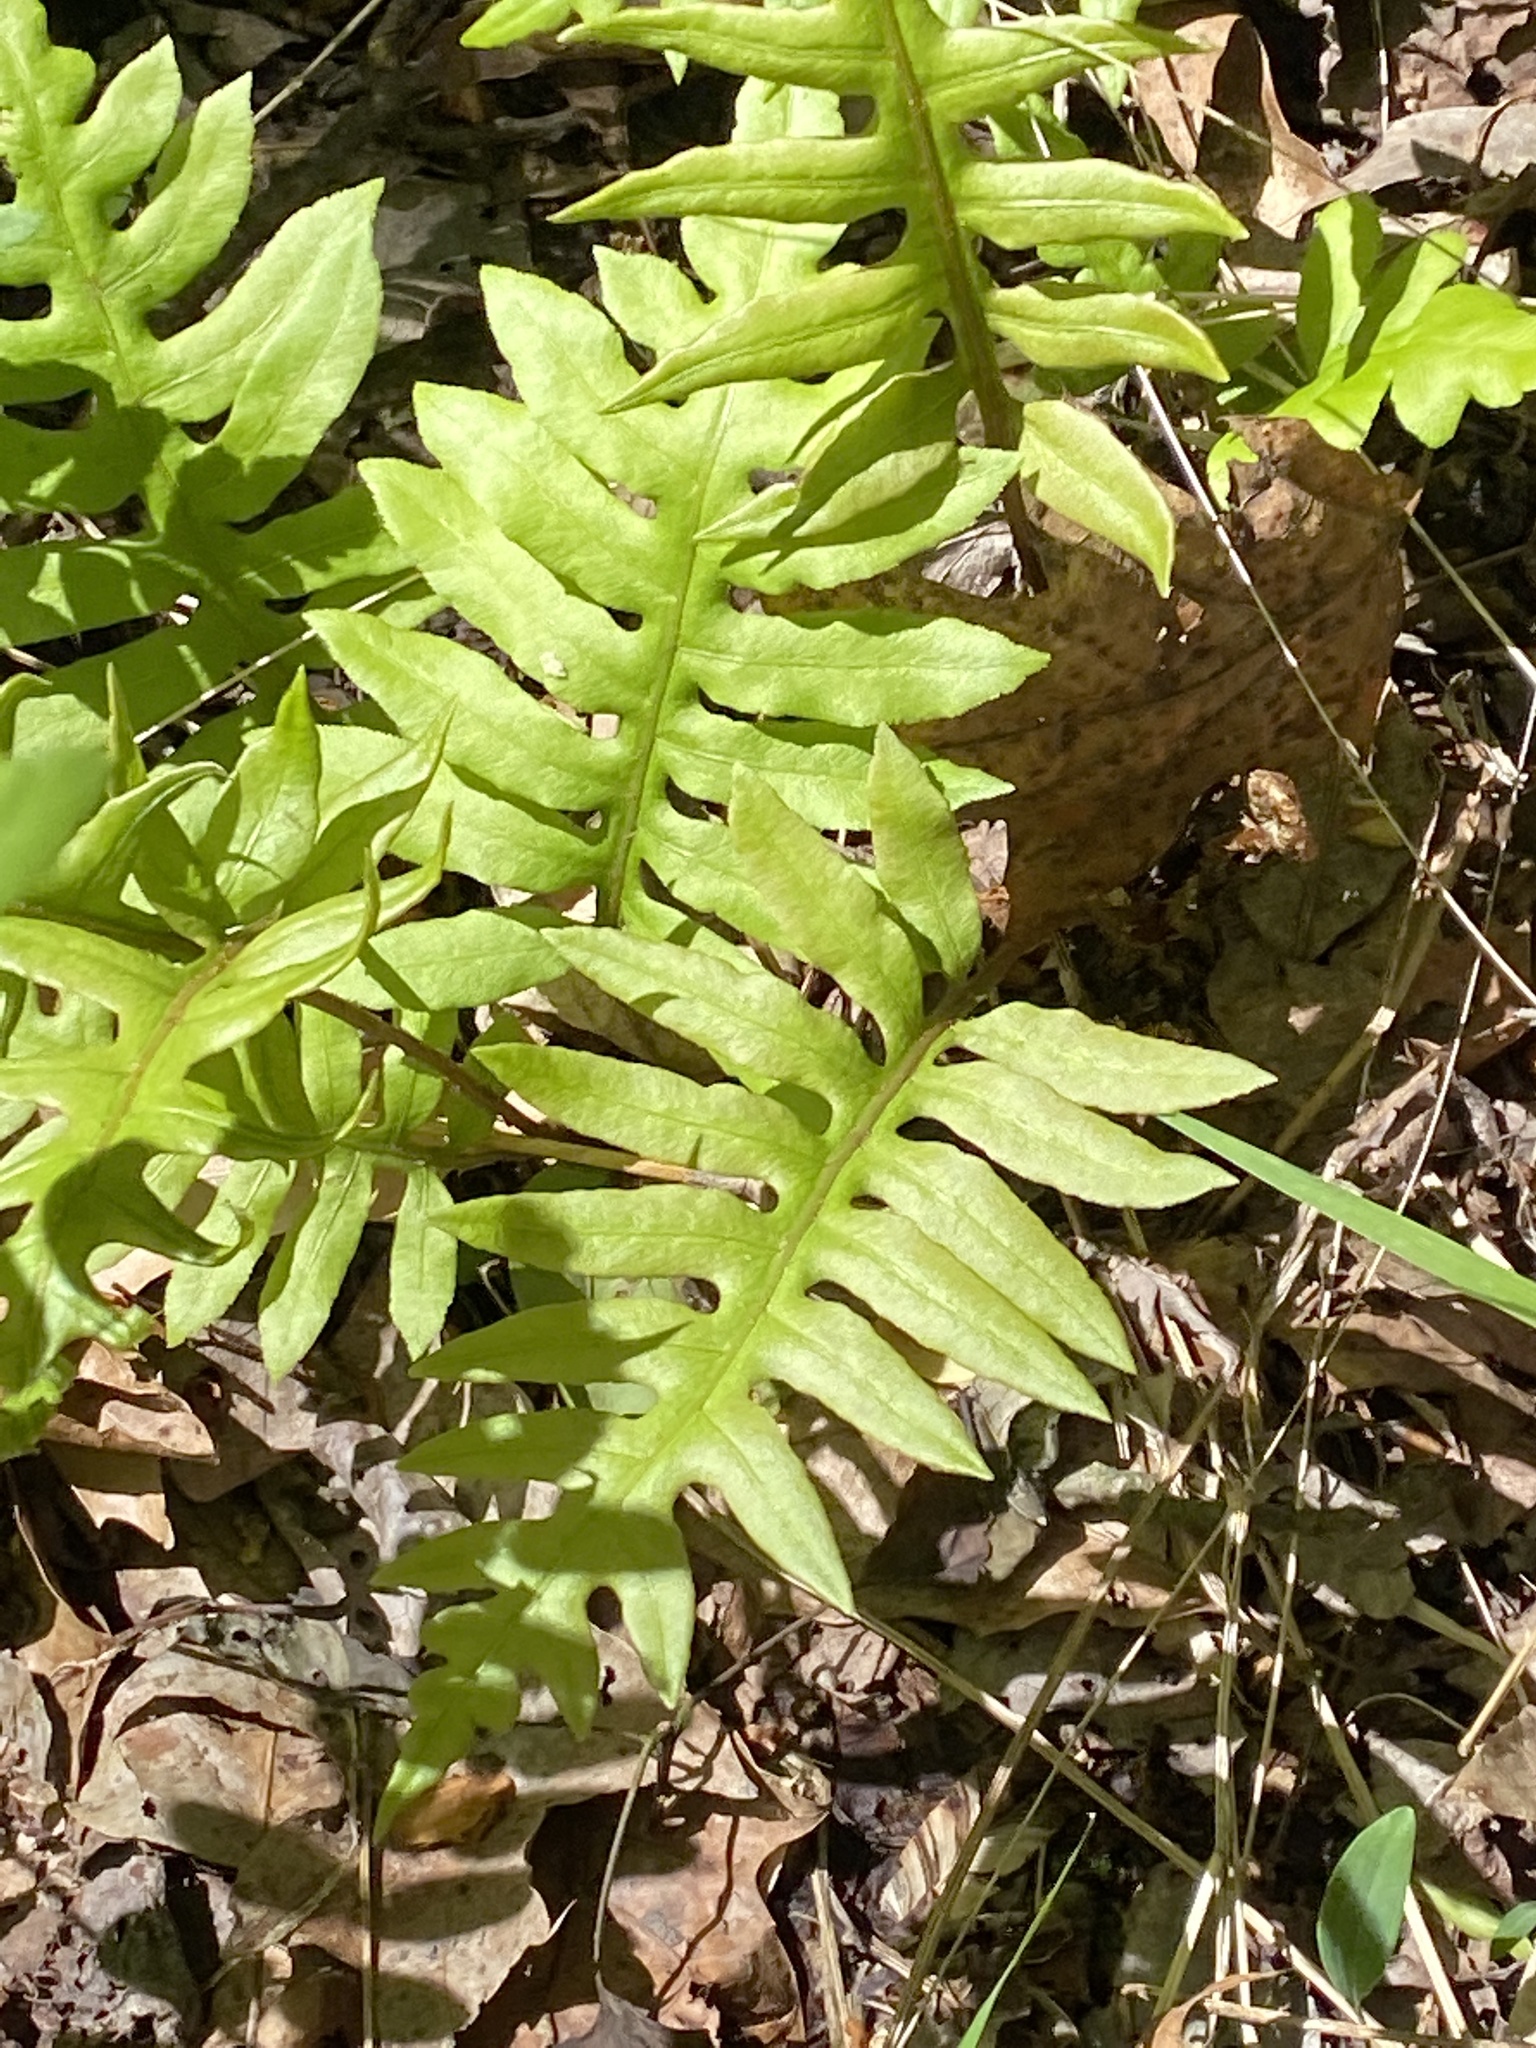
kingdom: Plantae
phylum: Tracheophyta
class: Polypodiopsida
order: Polypodiales
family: Blechnaceae
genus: Lorinseria
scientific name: Lorinseria areolata
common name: Dwarf chain fern
